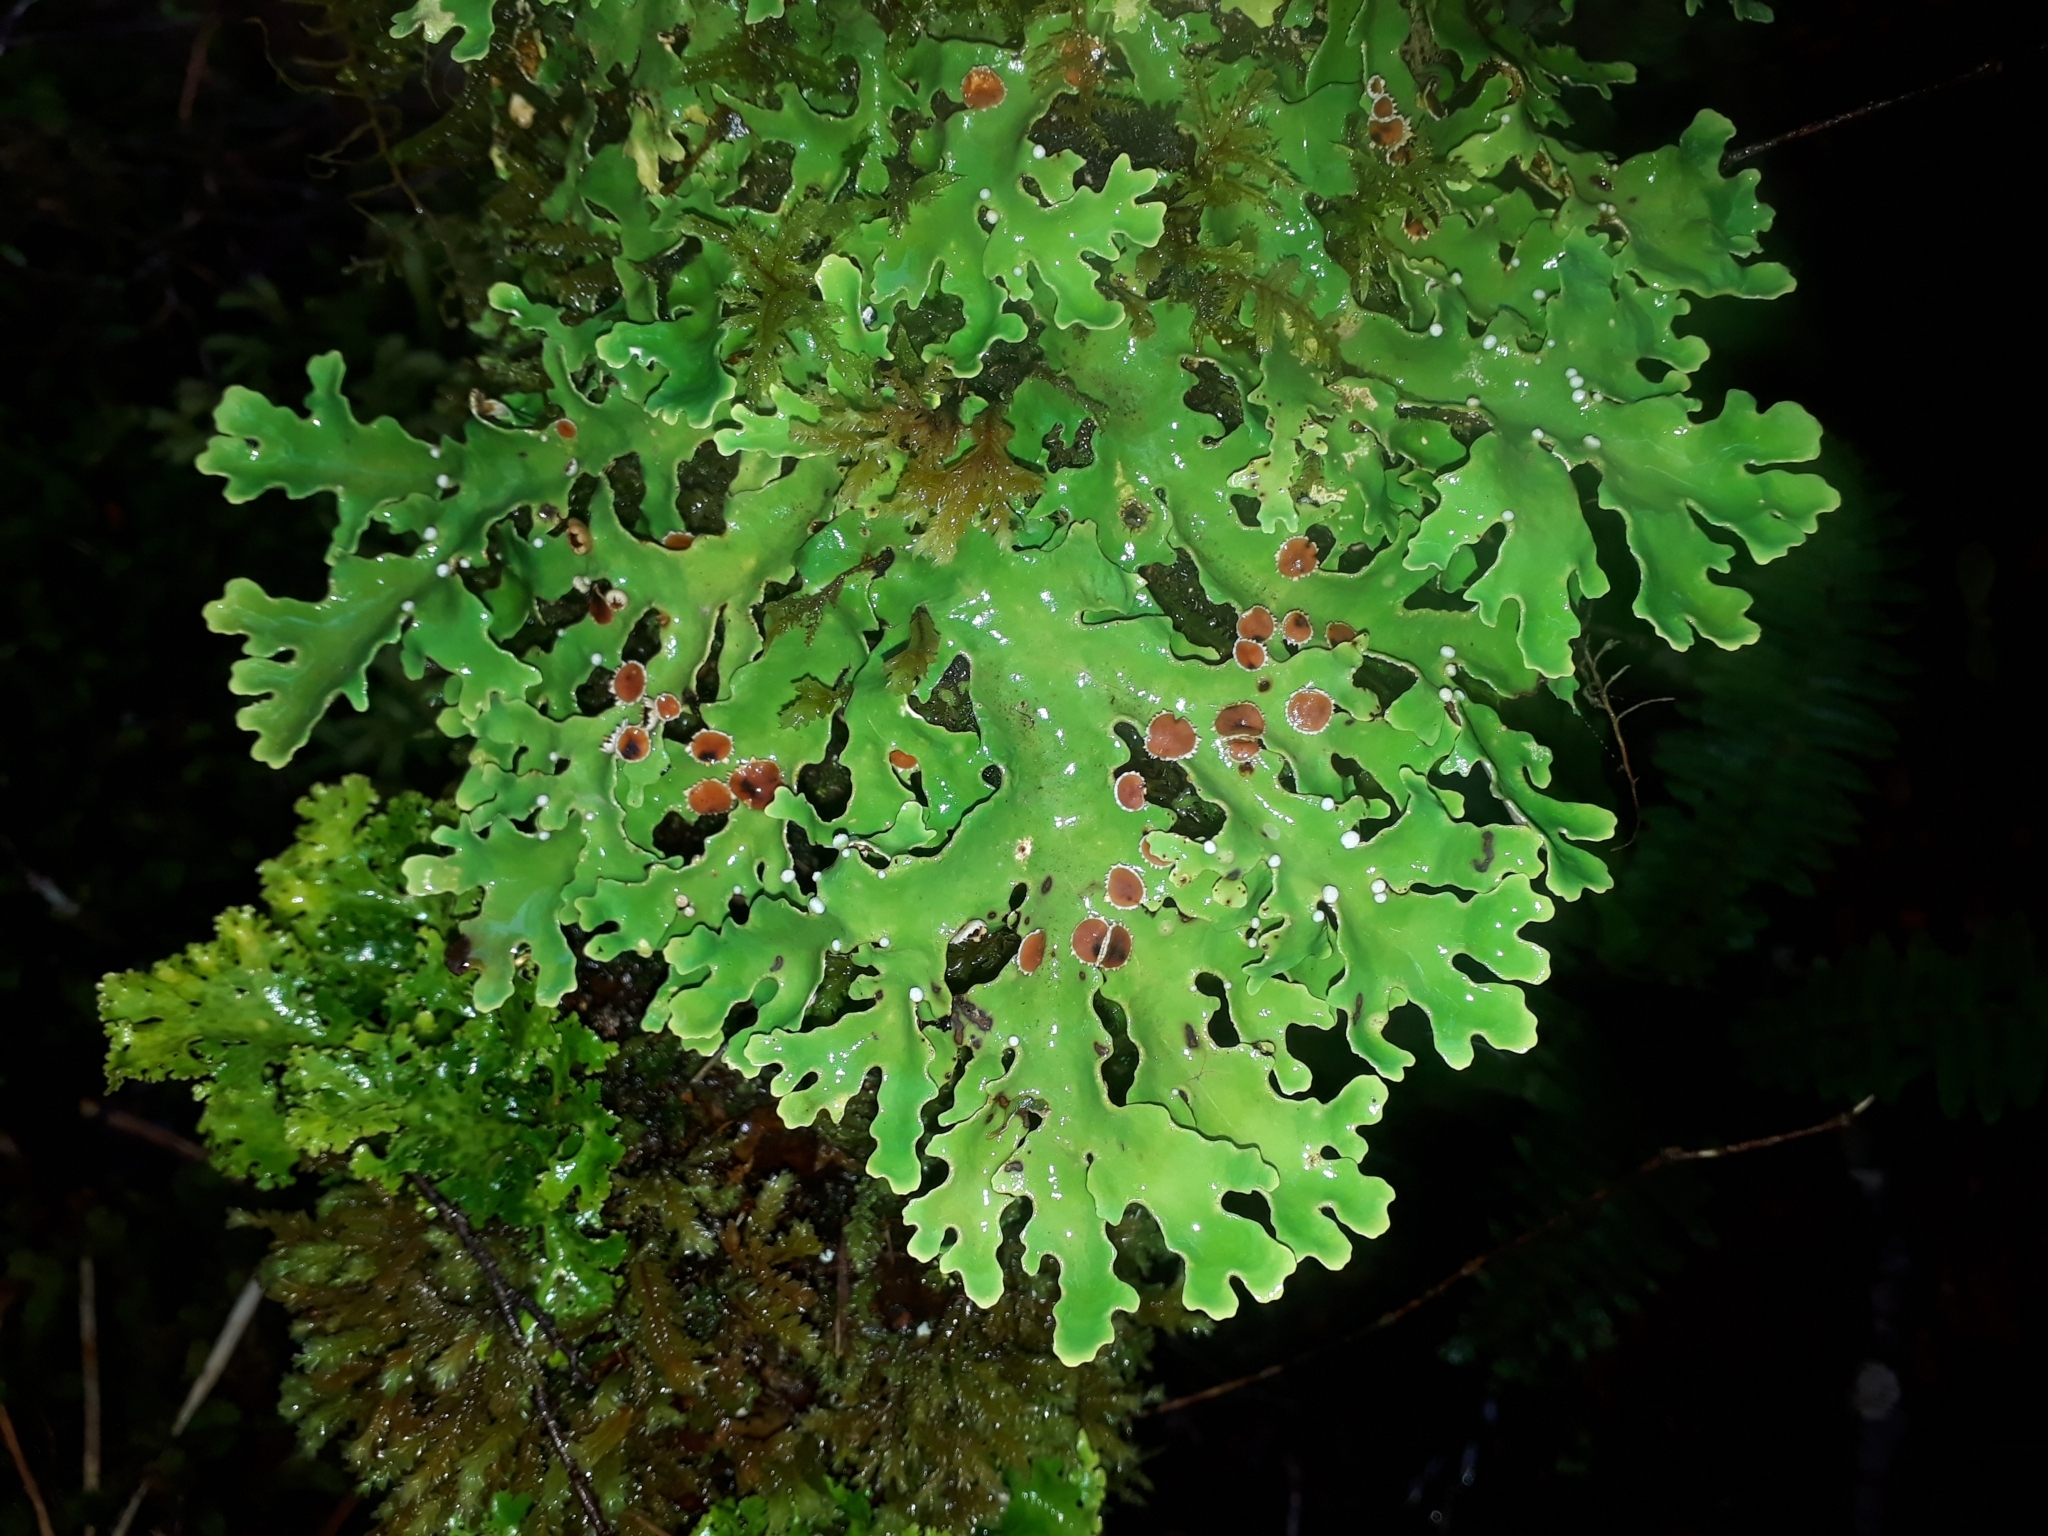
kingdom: Fungi
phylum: Ascomycota
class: Lecanoromycetes
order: Peltigerales
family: Lobariaceae
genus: Pseudocyphellaria
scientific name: Pseudocyphellaria homeophylla
